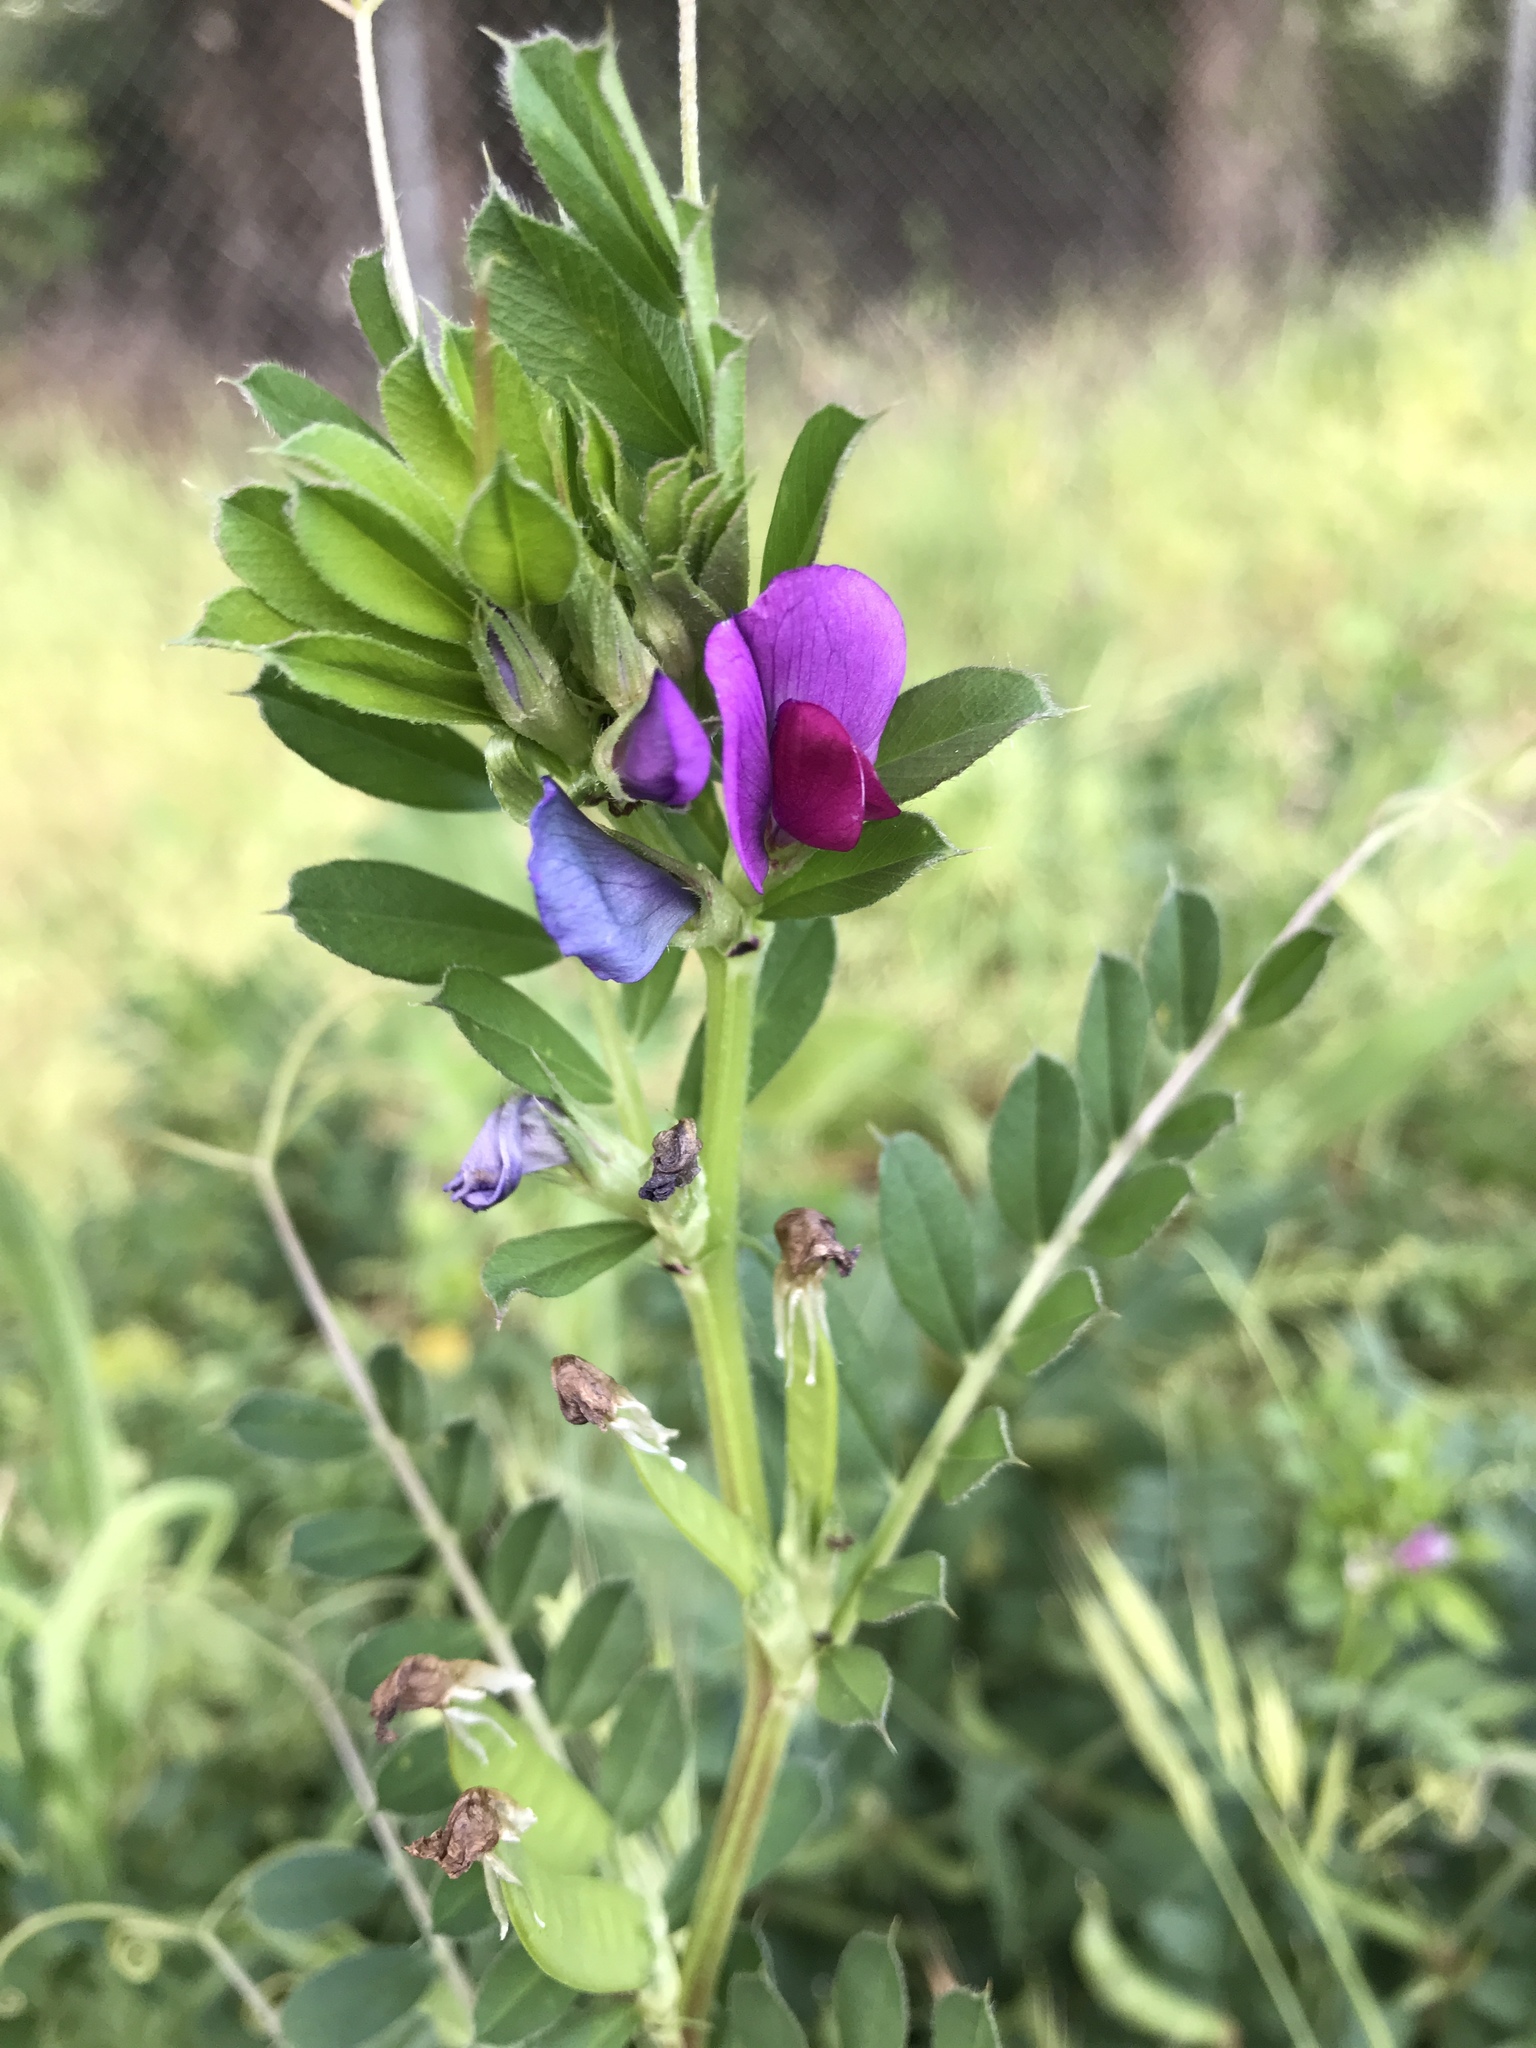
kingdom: Plantae
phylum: Tracheophyta
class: Magnoliopsida
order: Fabales
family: Fabaceae
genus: Vicia
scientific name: Vicia sativa
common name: Garden vetch
